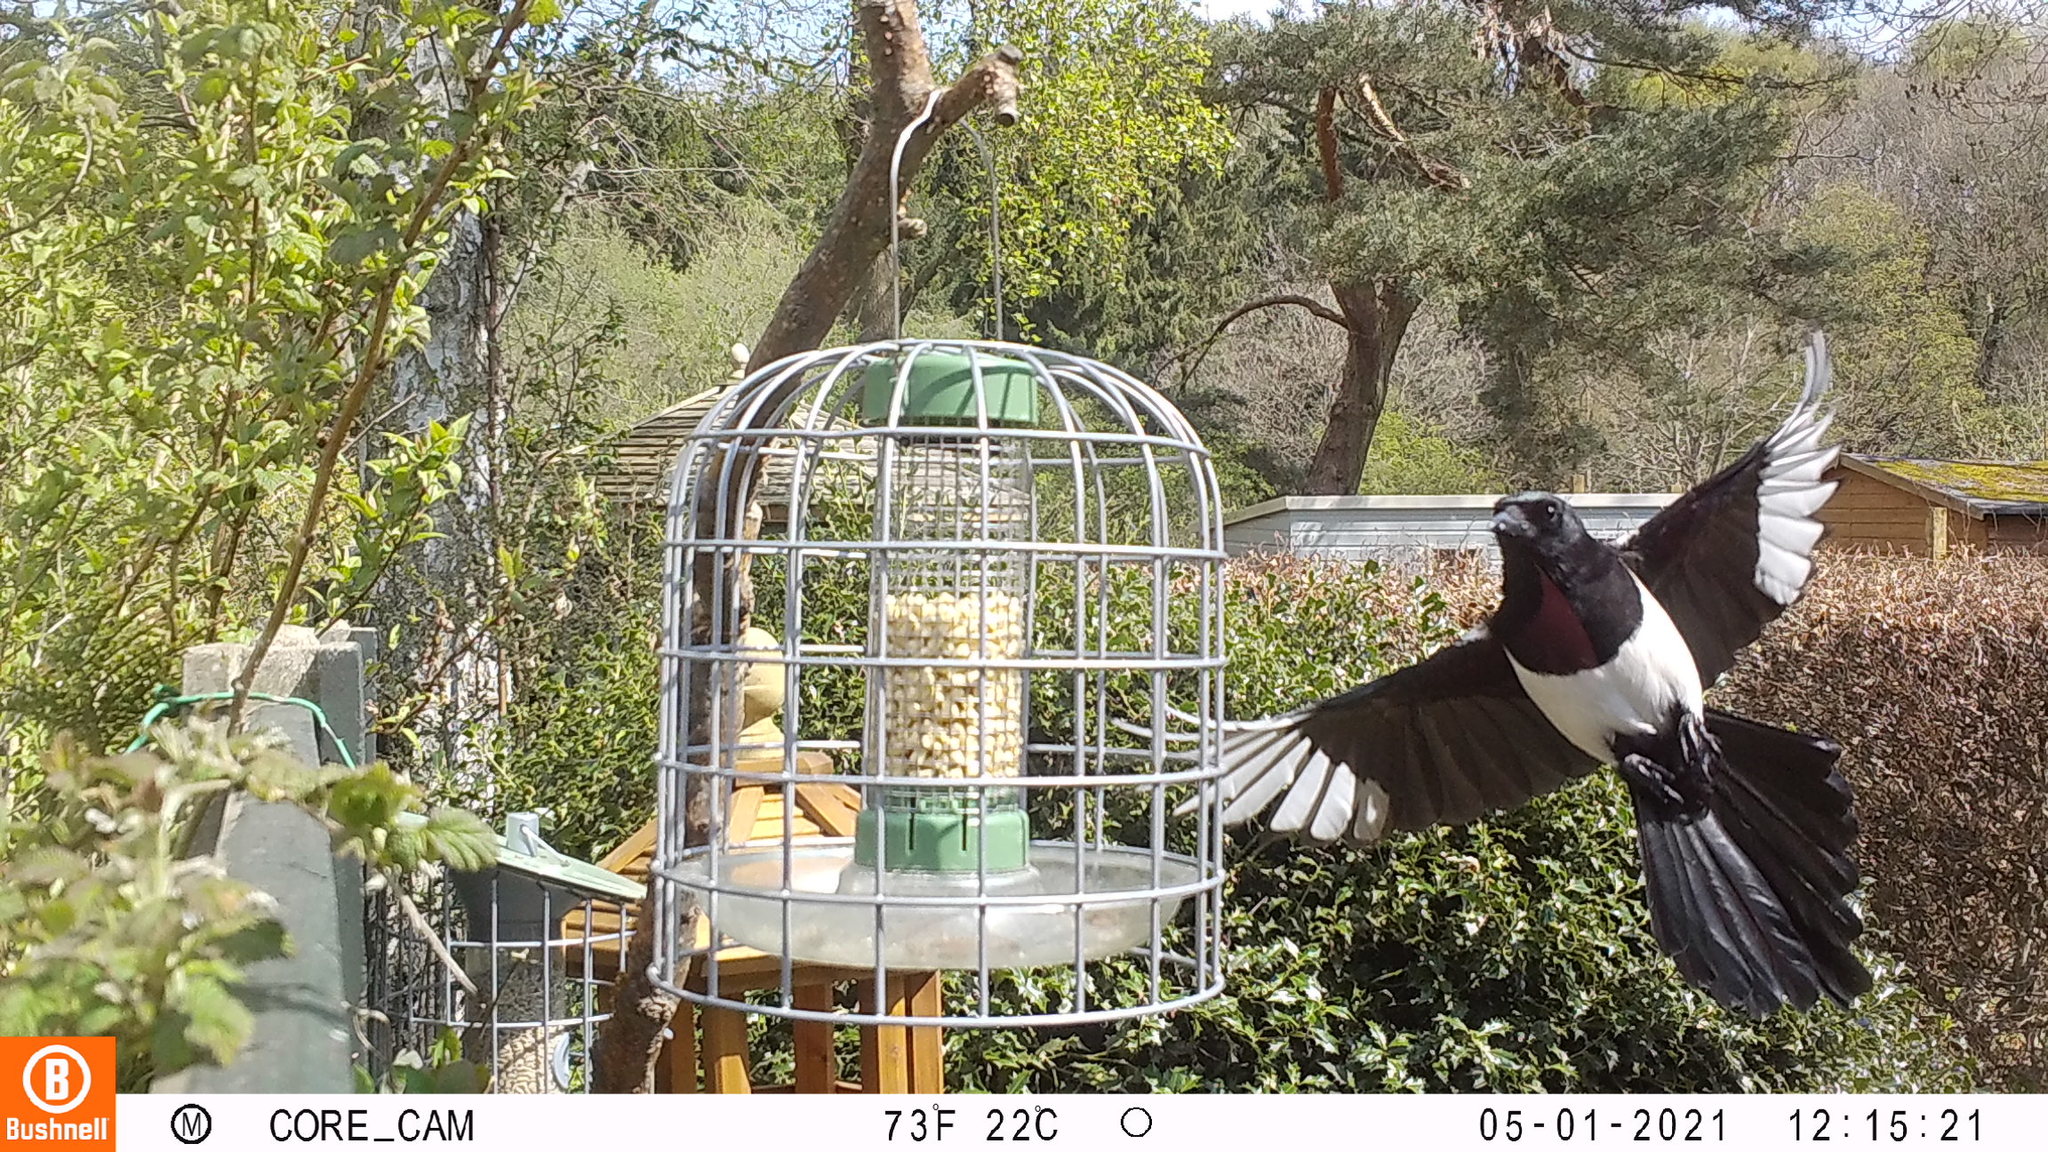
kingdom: Animalia
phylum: Chordata
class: Aves
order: Passeriformes
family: Corvidae
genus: Pica
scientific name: Pica pica
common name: Eurasian magpie
